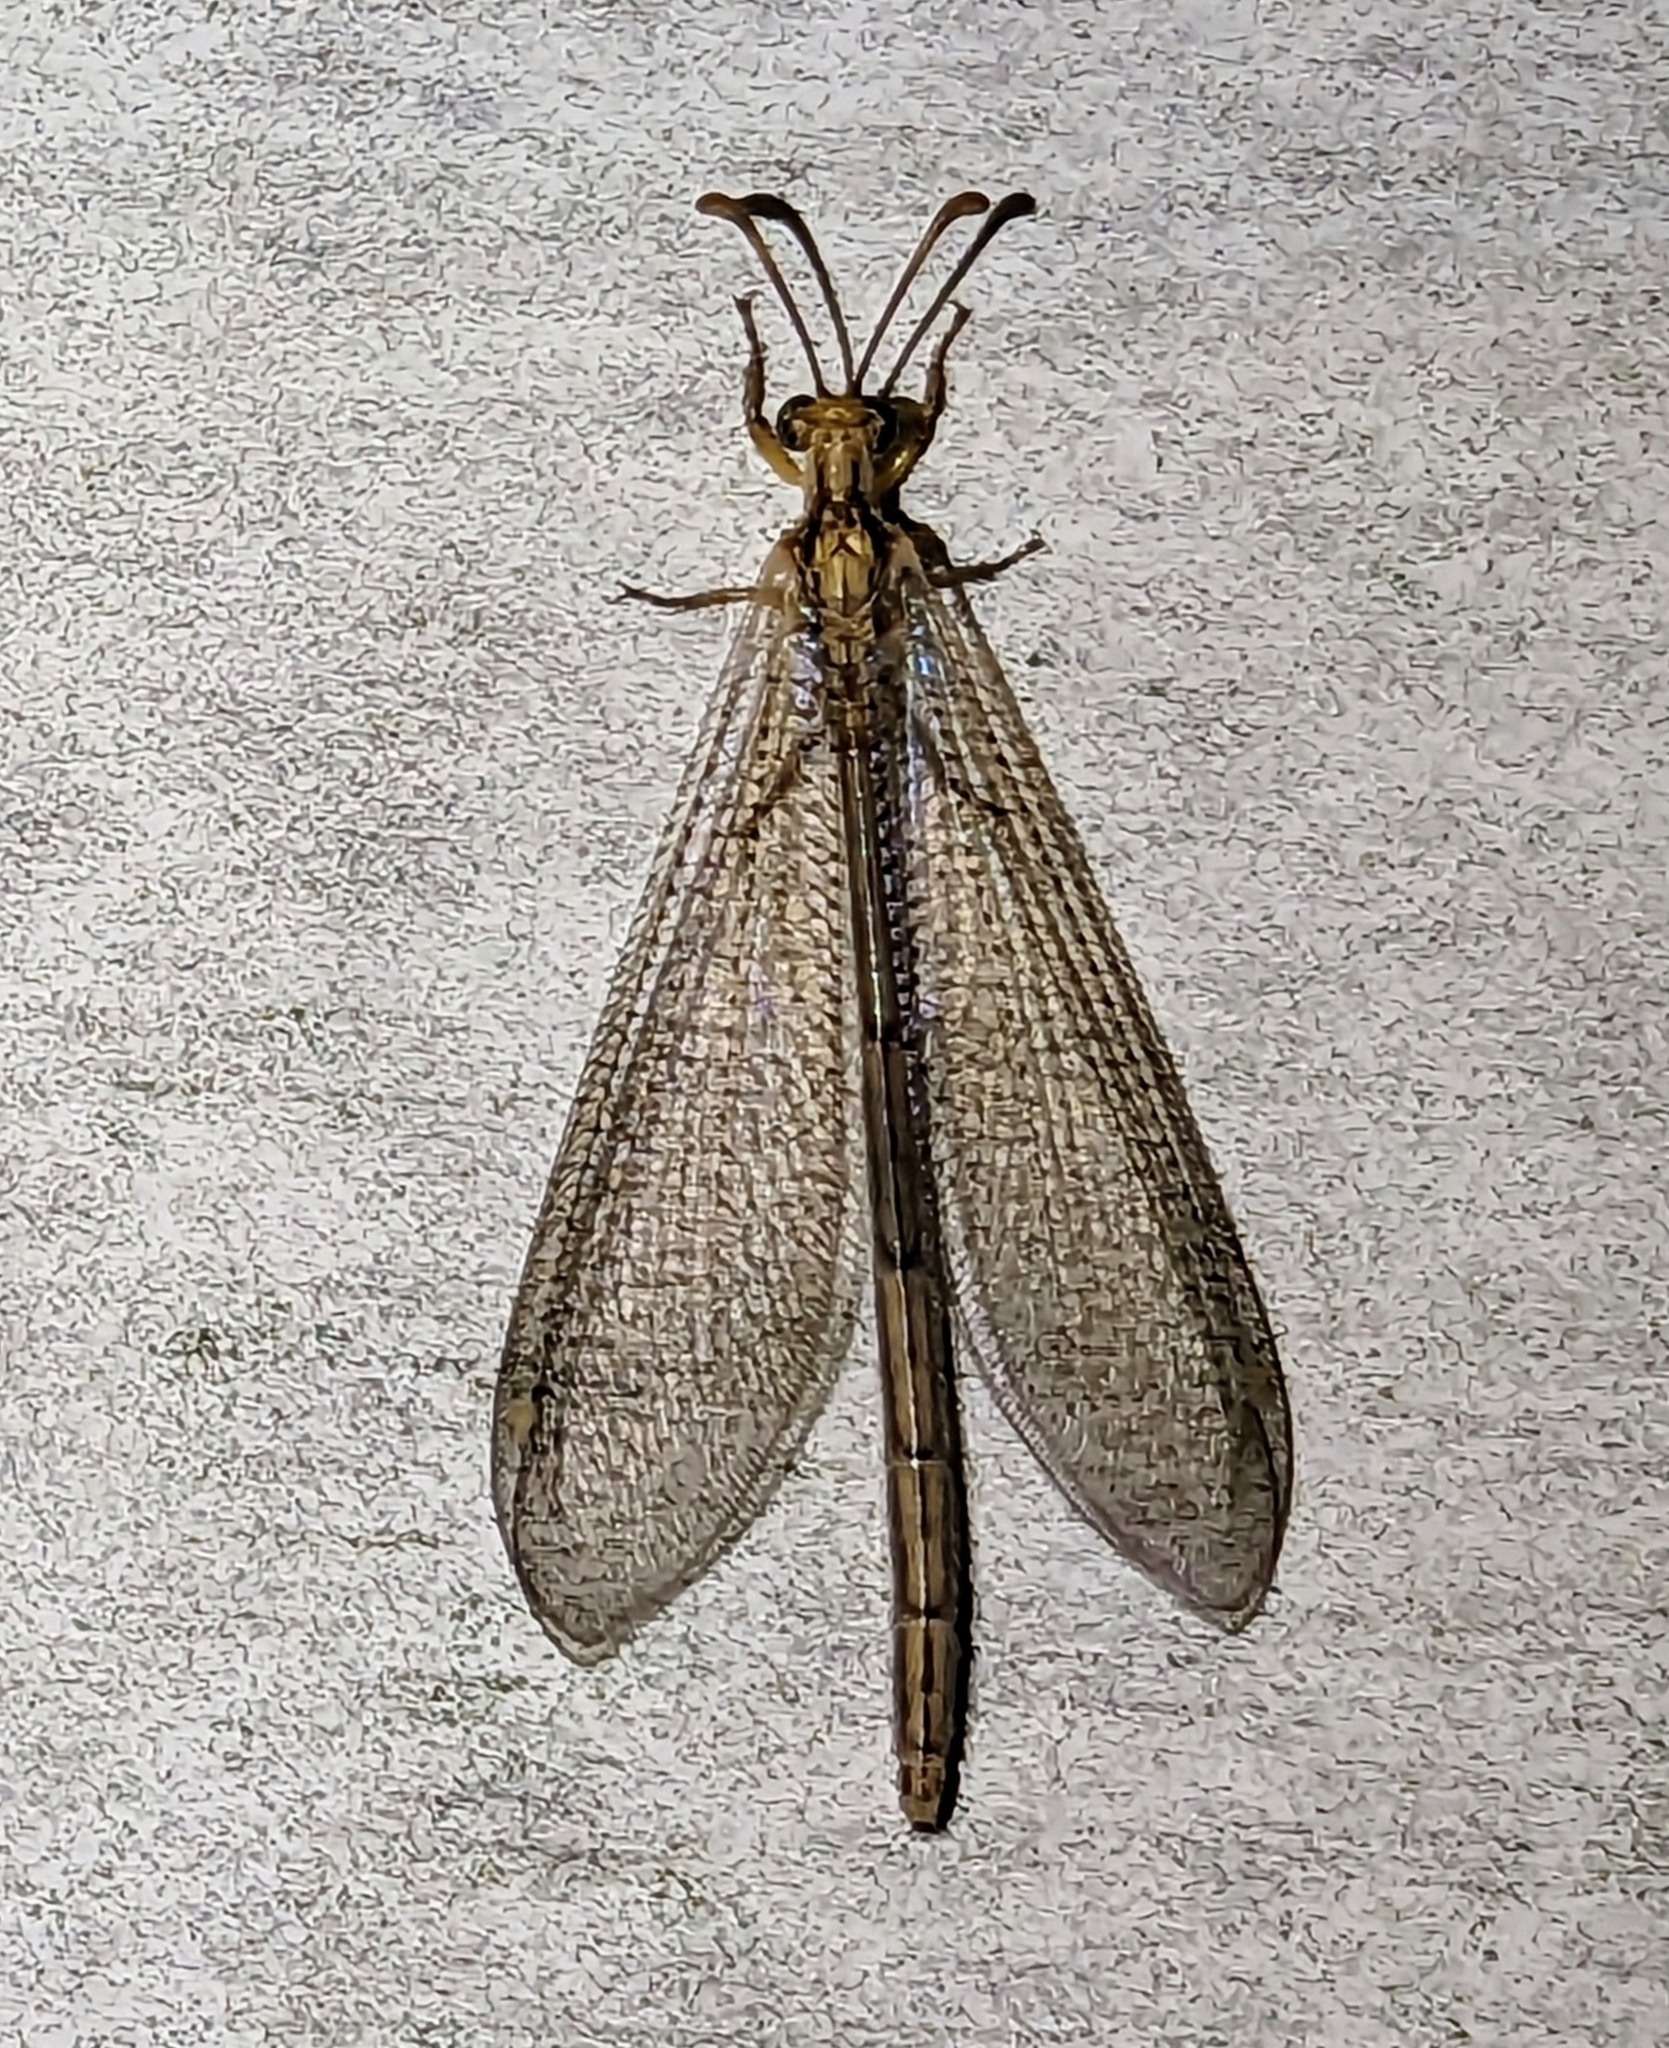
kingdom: Animalia
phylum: Arthropoda
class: Insecta
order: Neuroptera
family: Myrmeleontidae
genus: Brachynemurus
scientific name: Brachynemurus abdominalis
